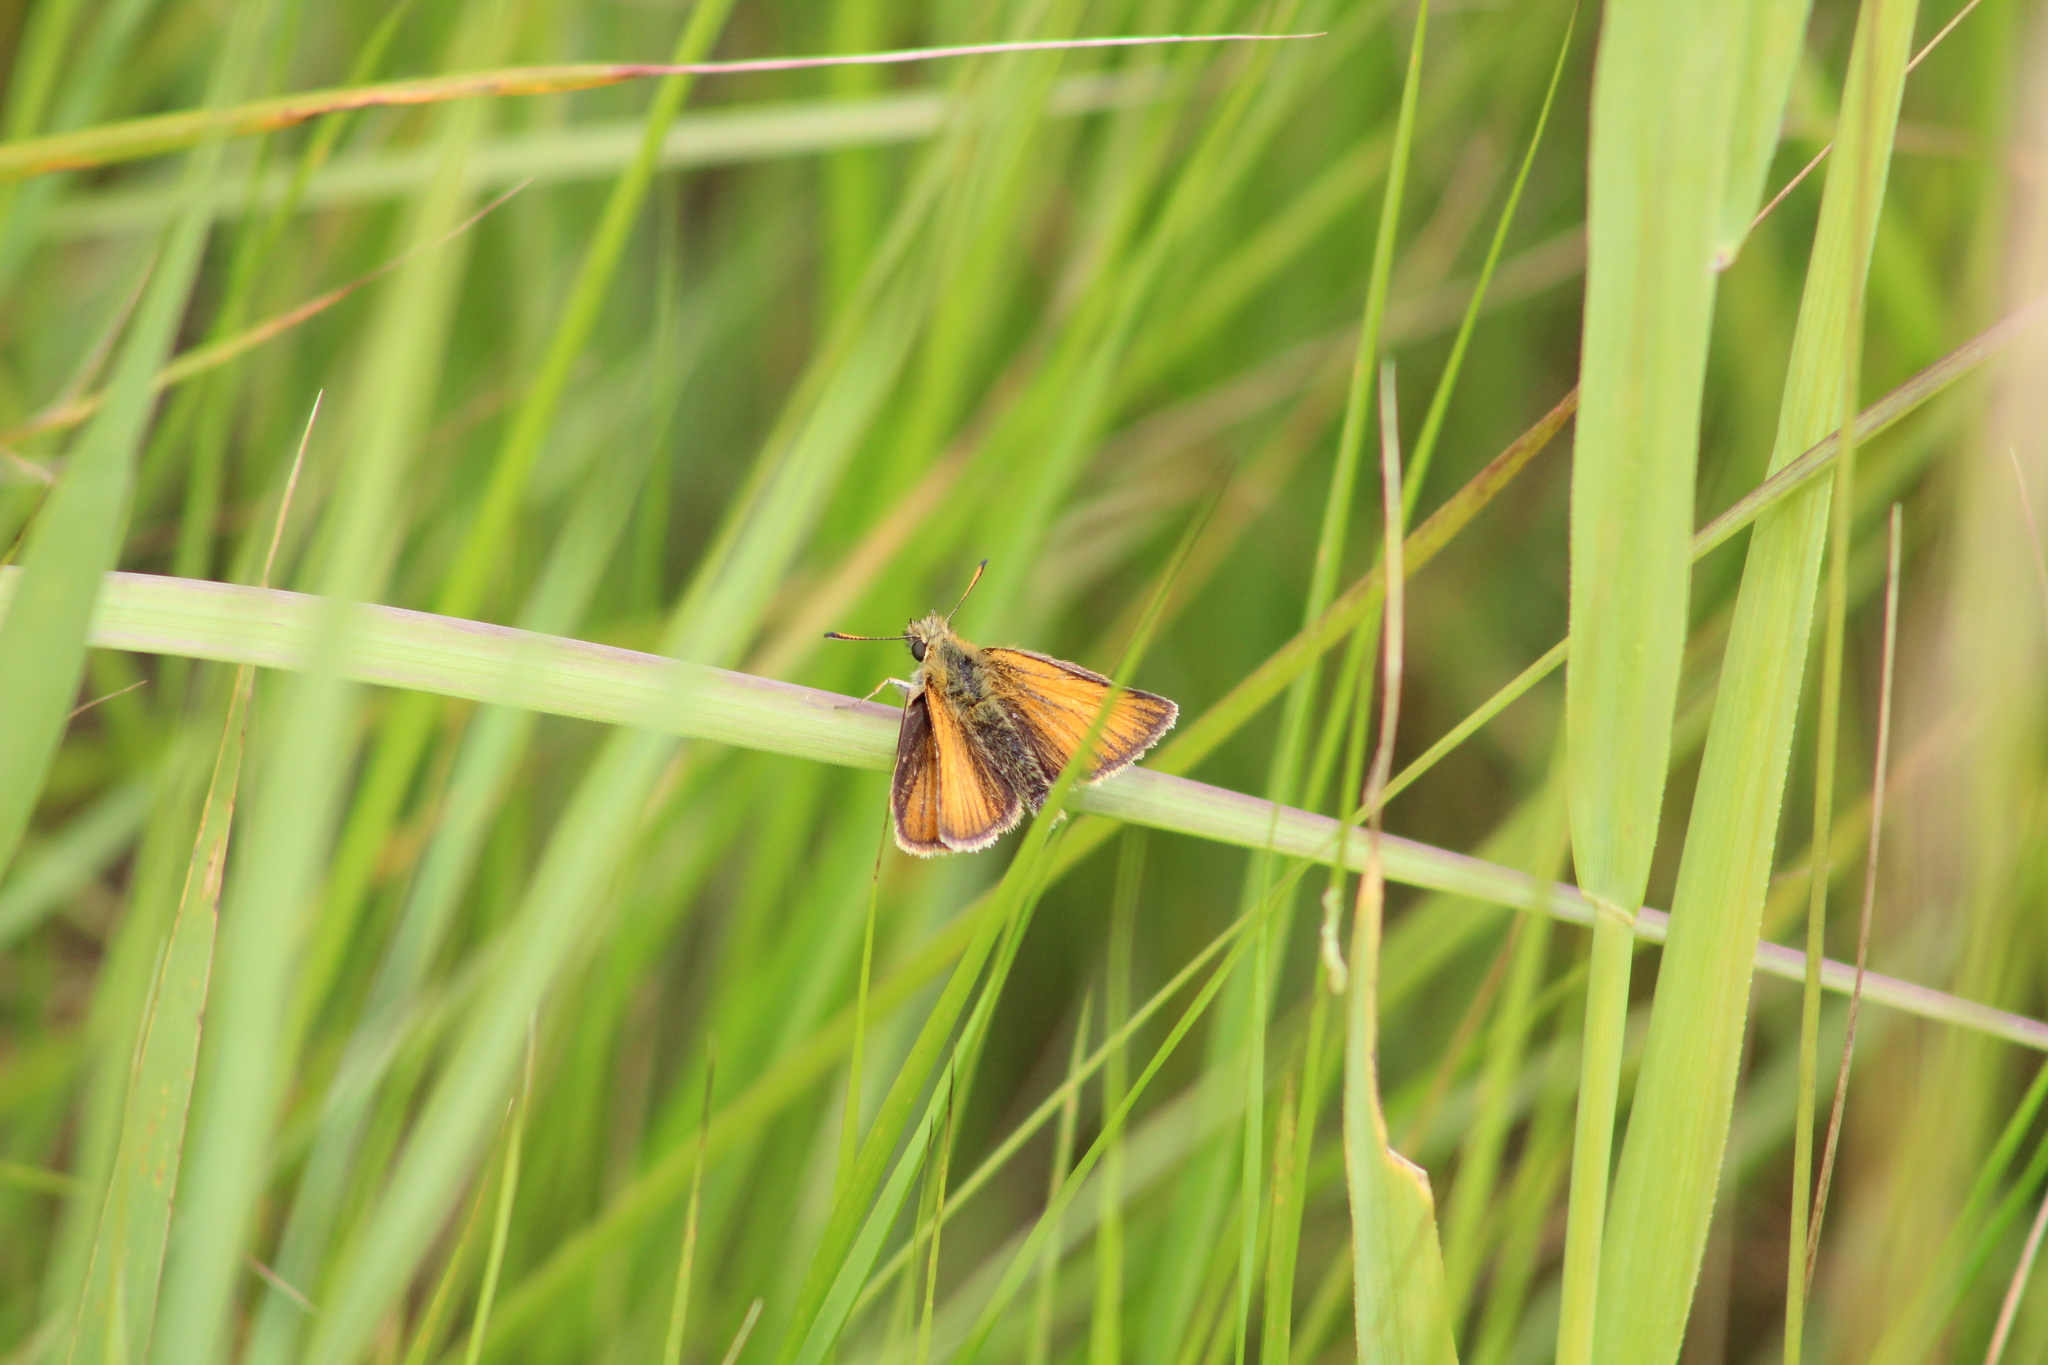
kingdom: Animalia
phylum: Arthropoda
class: Insecta
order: Lepidoptera
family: Hesperiidae
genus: Thymelicus
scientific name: Thymelicus lineola
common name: Essex skipper
